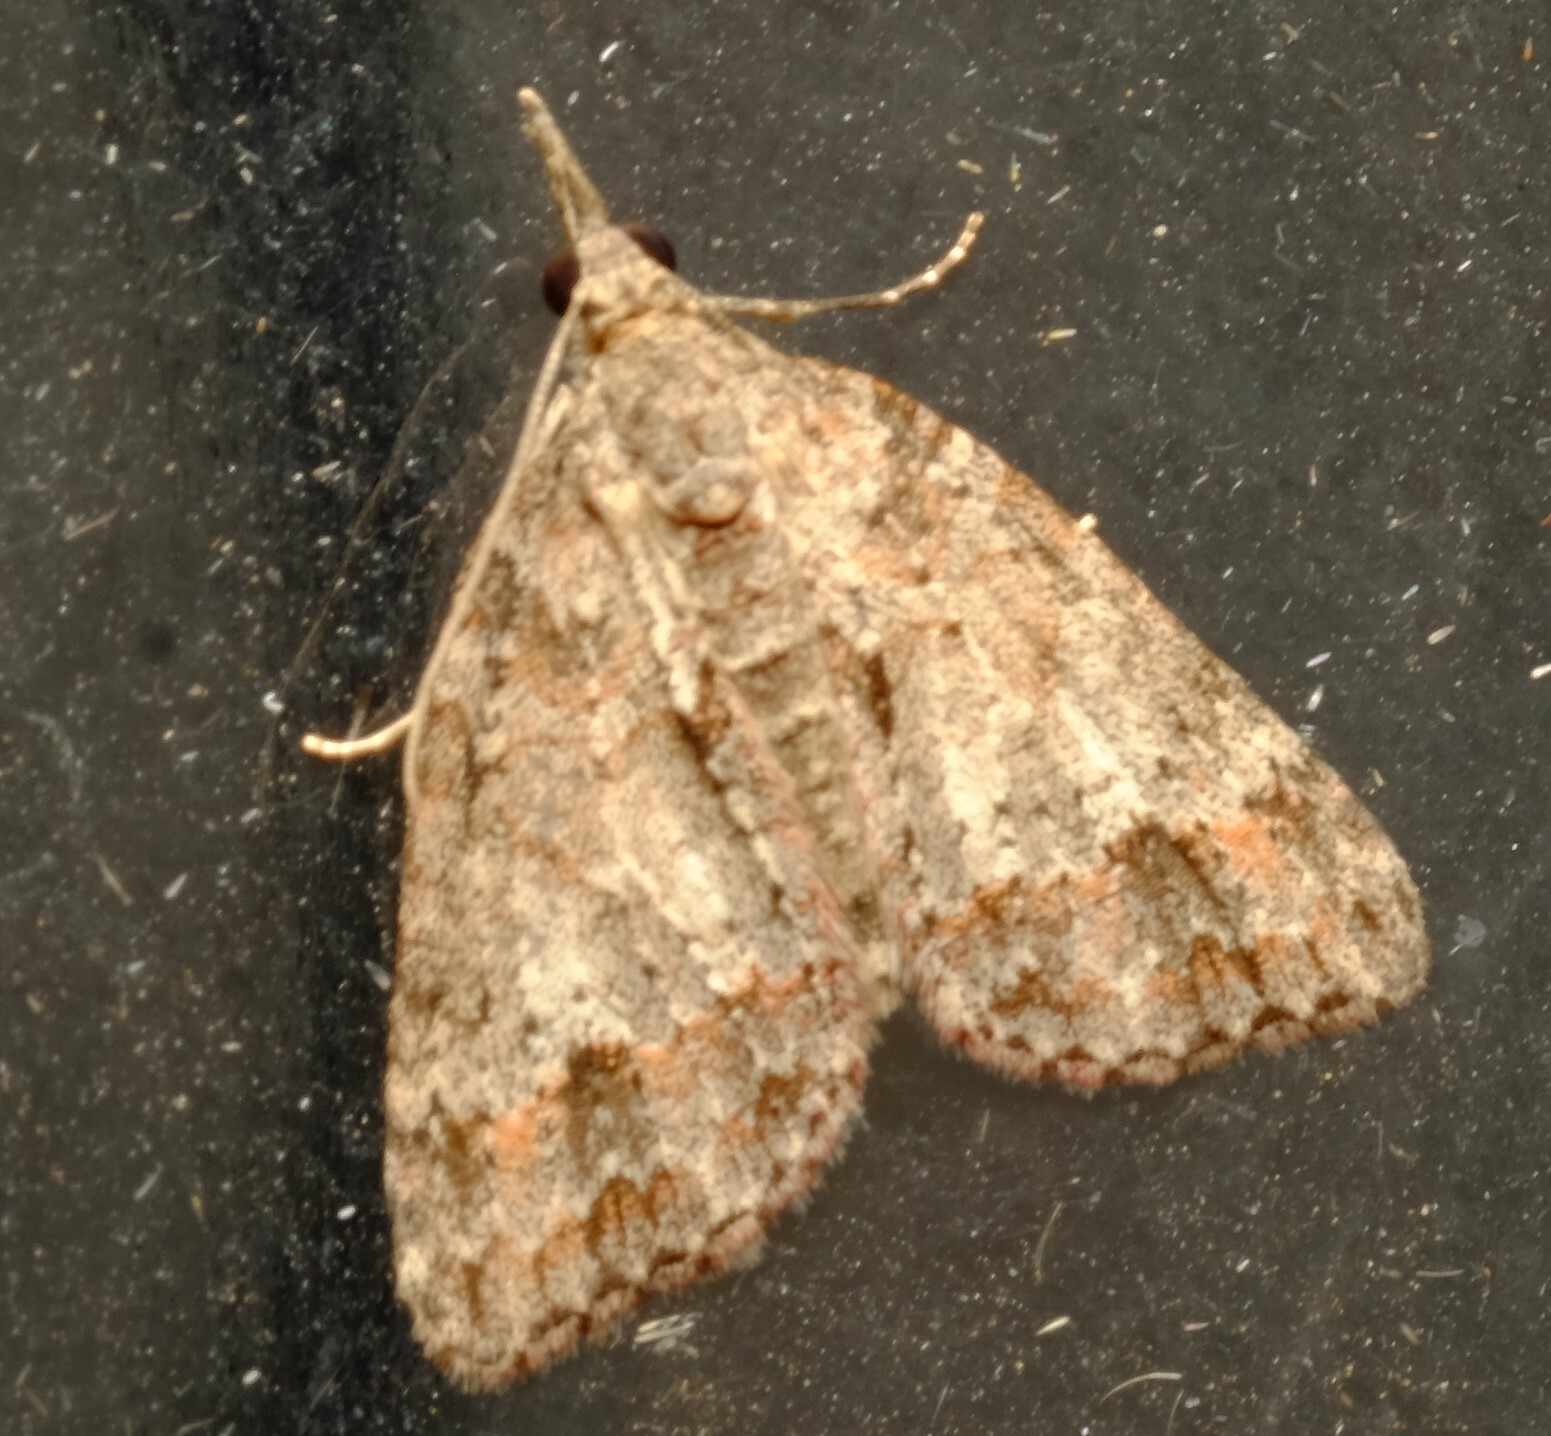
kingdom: Animalia
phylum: Arthropoda
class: Insecta
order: Lepidoptera
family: Geometridae
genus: Microdes
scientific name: Microdes villosata
